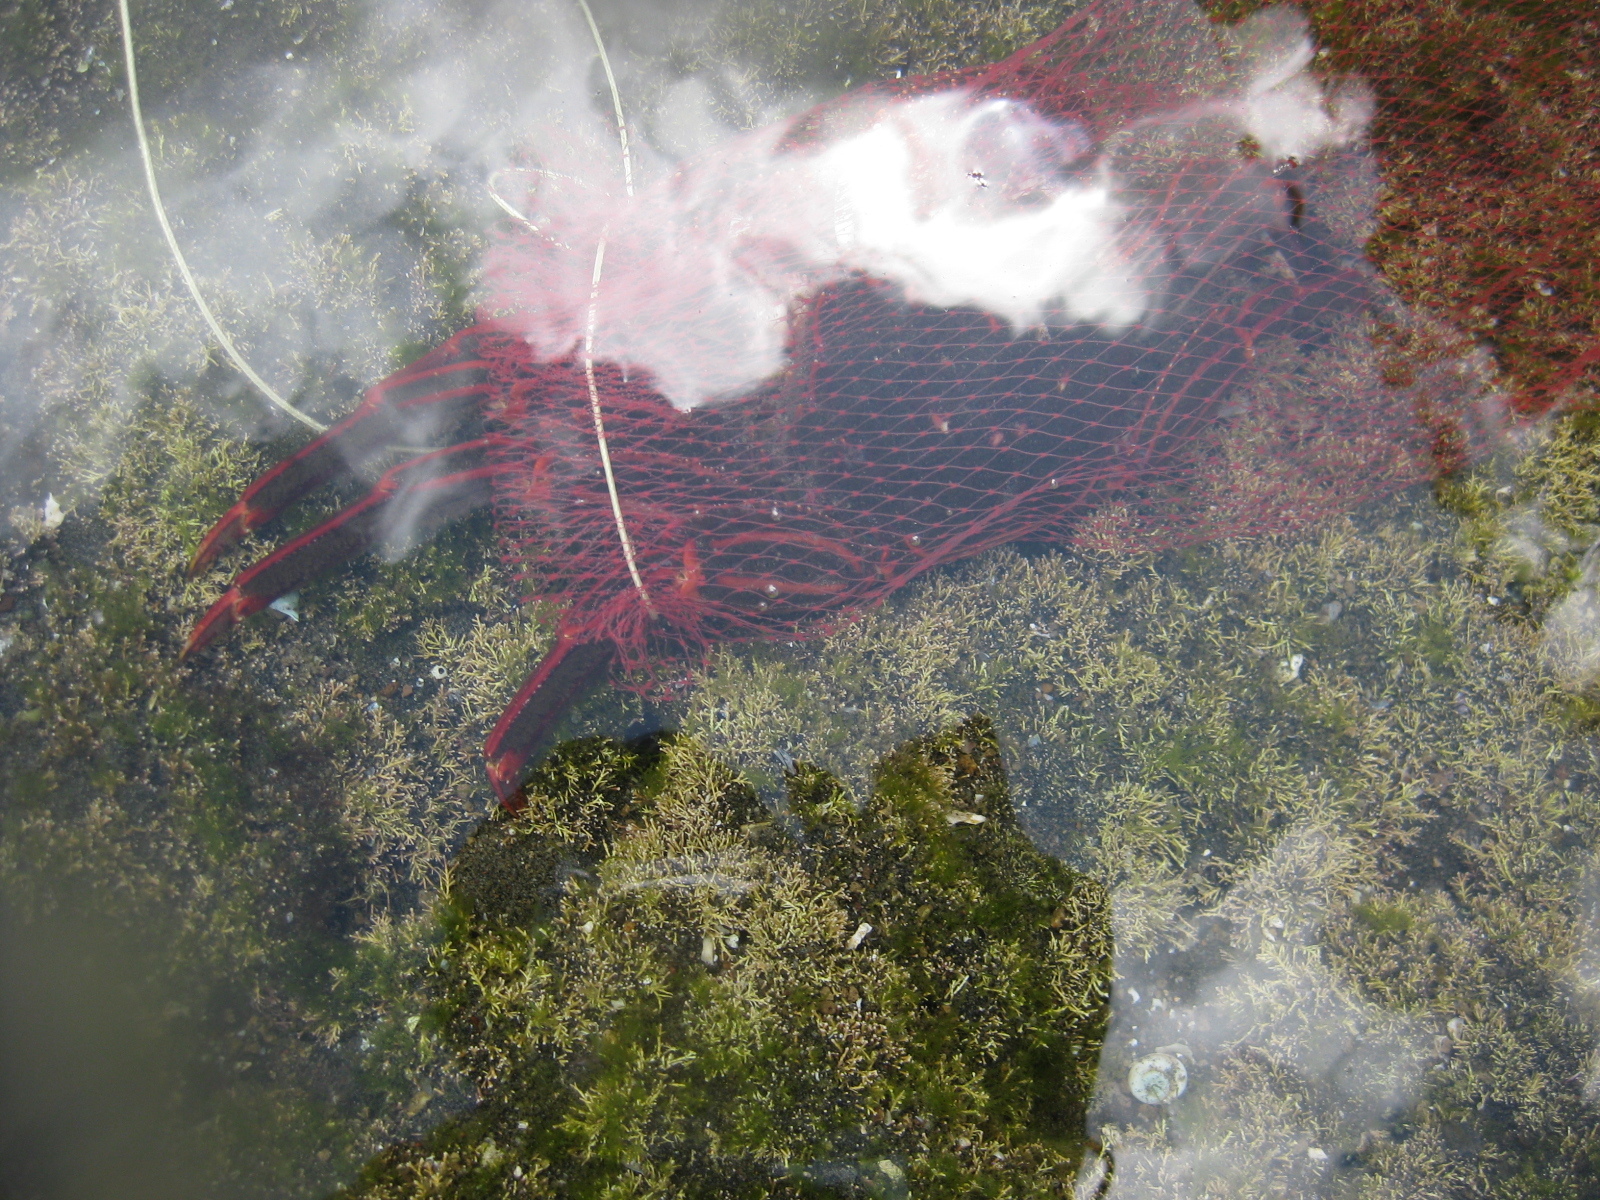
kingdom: Animalia
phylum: Arthropoda
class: Malacostraca
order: Decapoda
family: Plagusiidae
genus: Guinusia
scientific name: Guinusia chabrus
